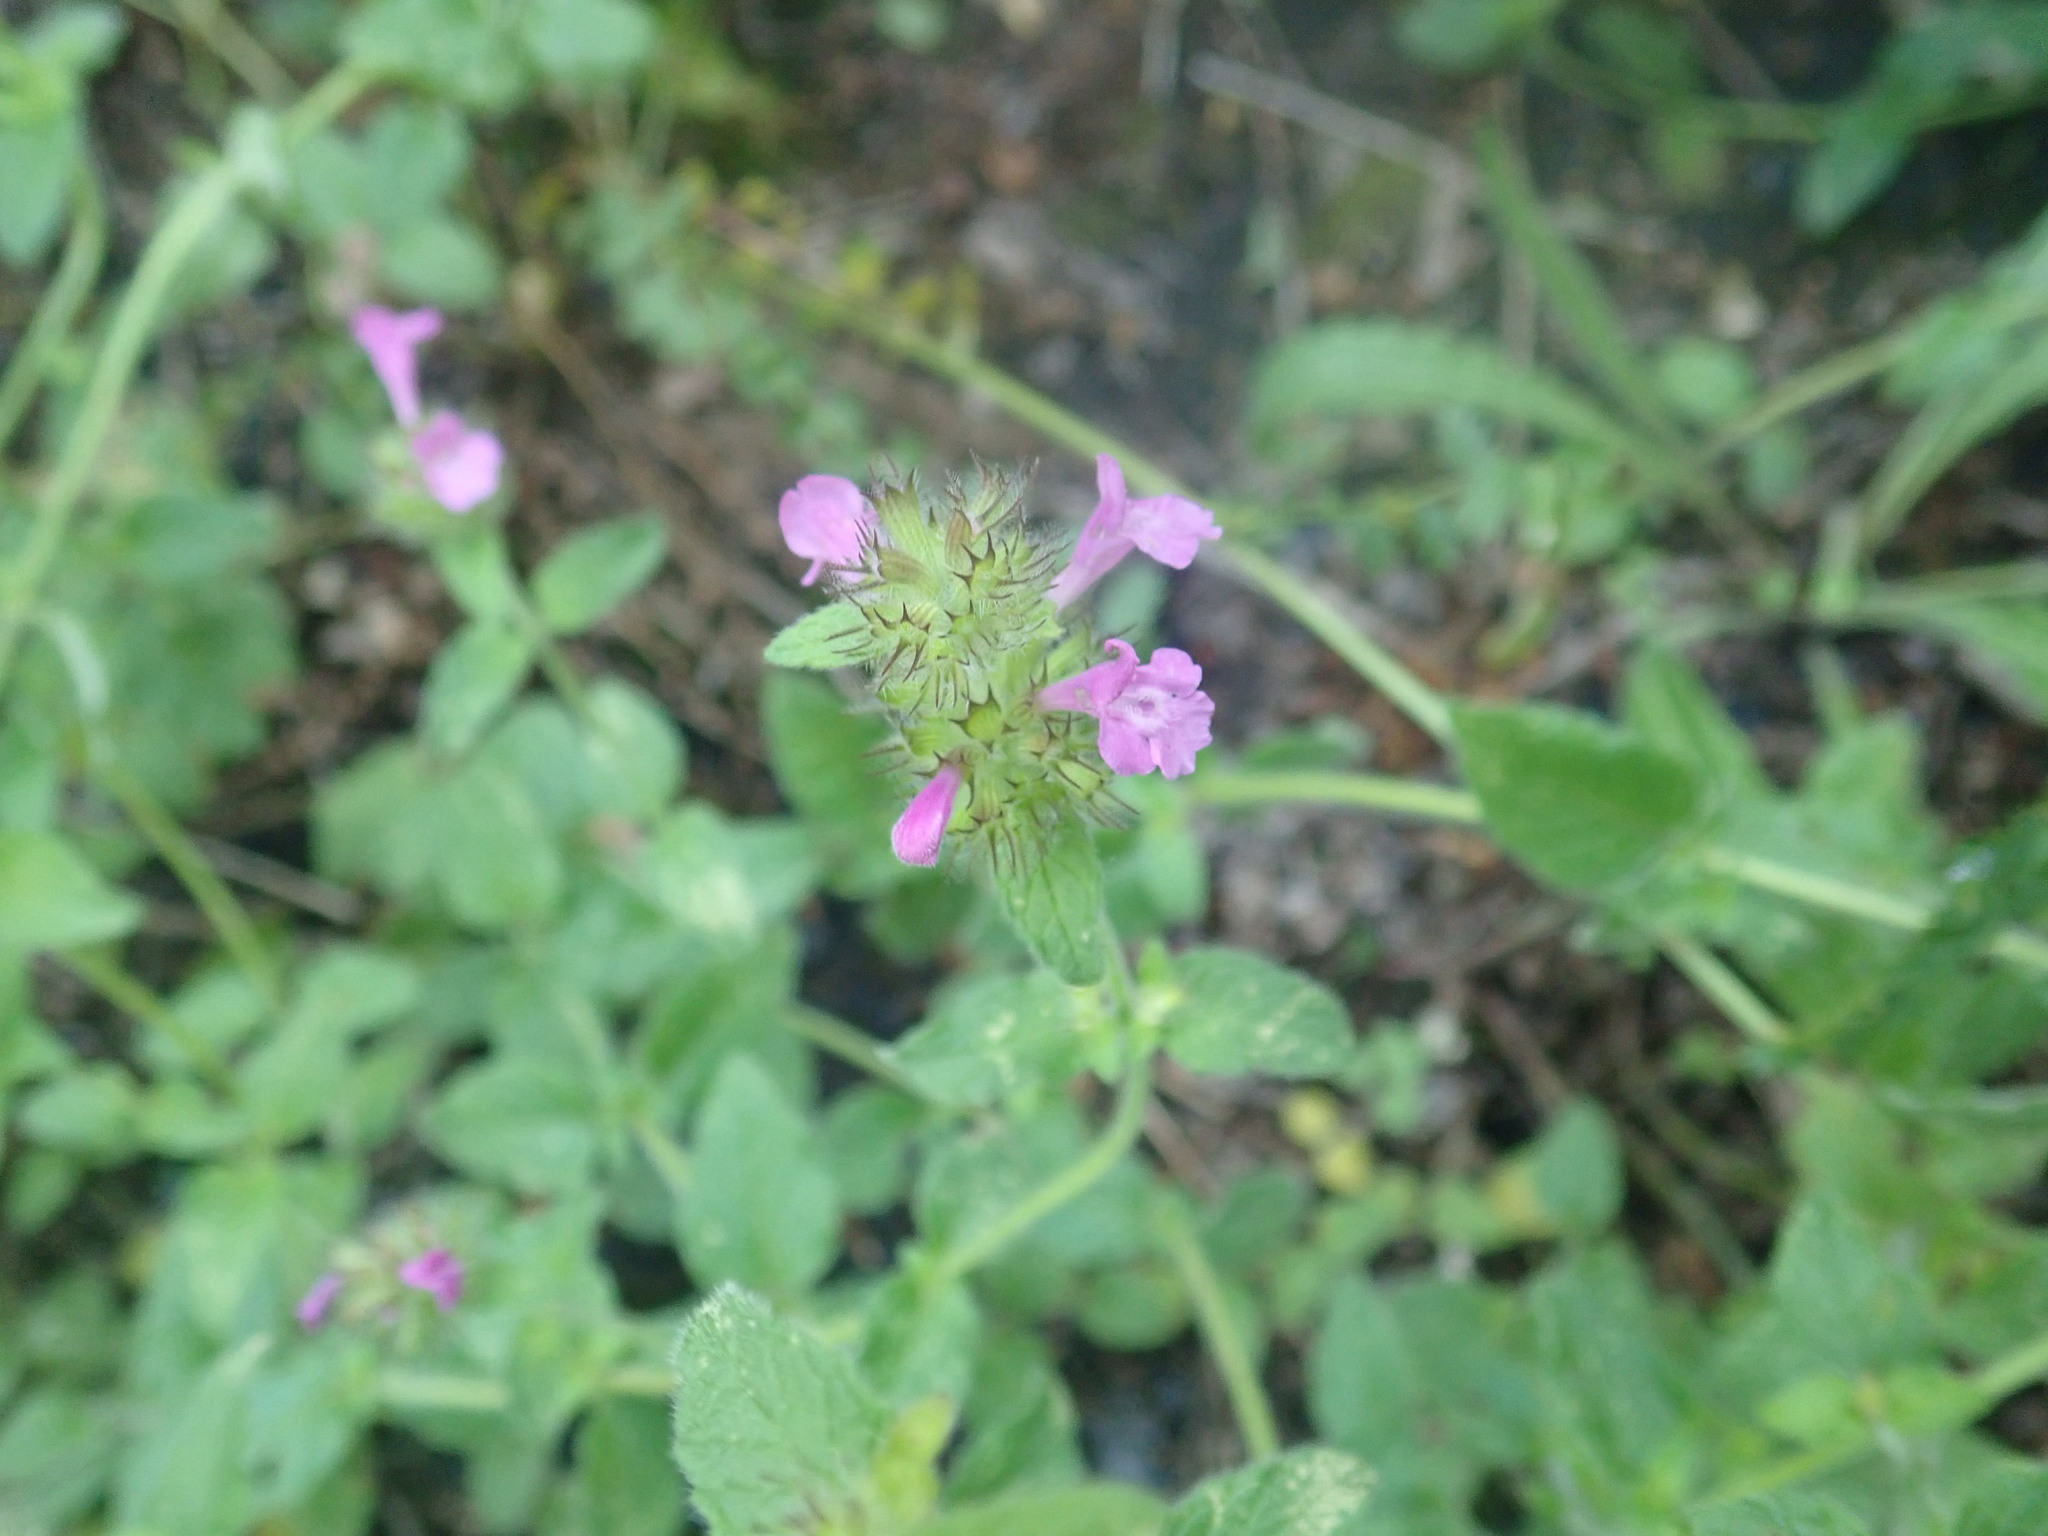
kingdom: Plantae
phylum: Tracheophyta
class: Magnoliopsida
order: Lamiales
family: Lamiaceae
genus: Clinopodium
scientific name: Clinopodium vulgare
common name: Wild basil
